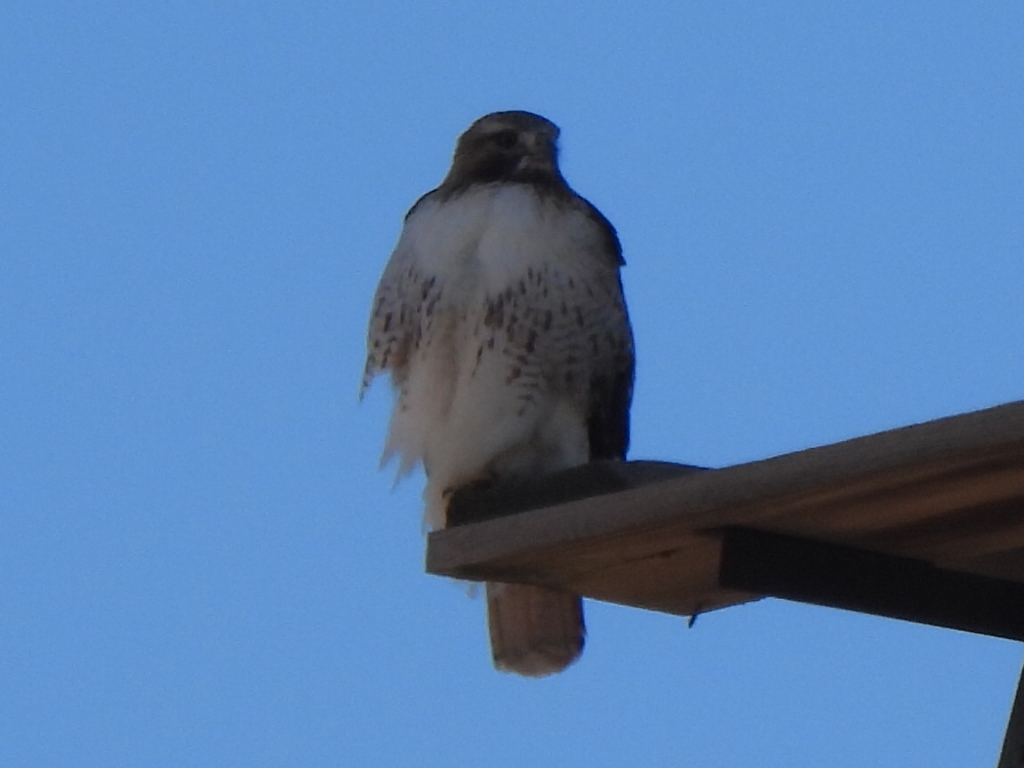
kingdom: Animalia
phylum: Chordata
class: Aves
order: Accipitriformes
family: Accipitridae
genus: Buteo
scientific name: Buteo jamaicensis
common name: Red-tailed hawk
